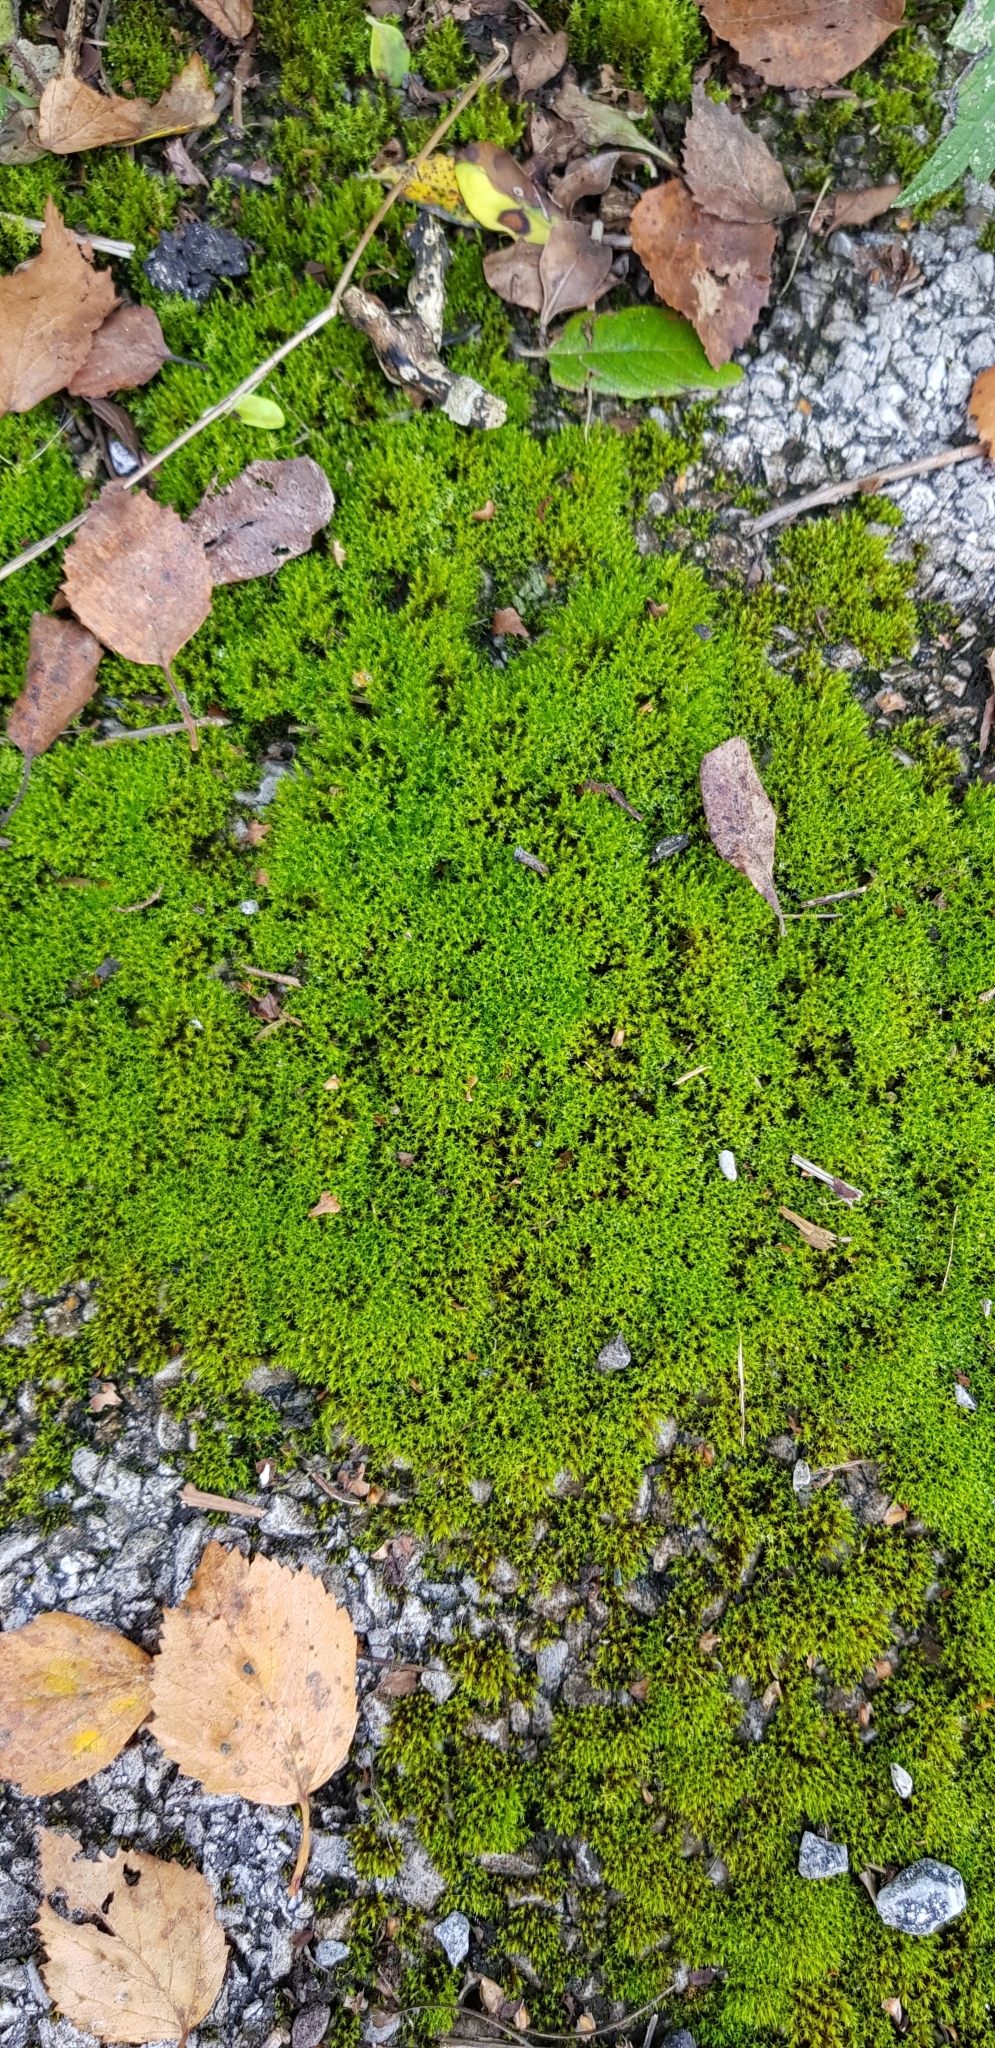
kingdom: Plantae
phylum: Bryophyta
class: Bryopsida
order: Pottiales
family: Pottiaceae
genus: Vinealobryum
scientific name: Vinealobryum nicholsonii
